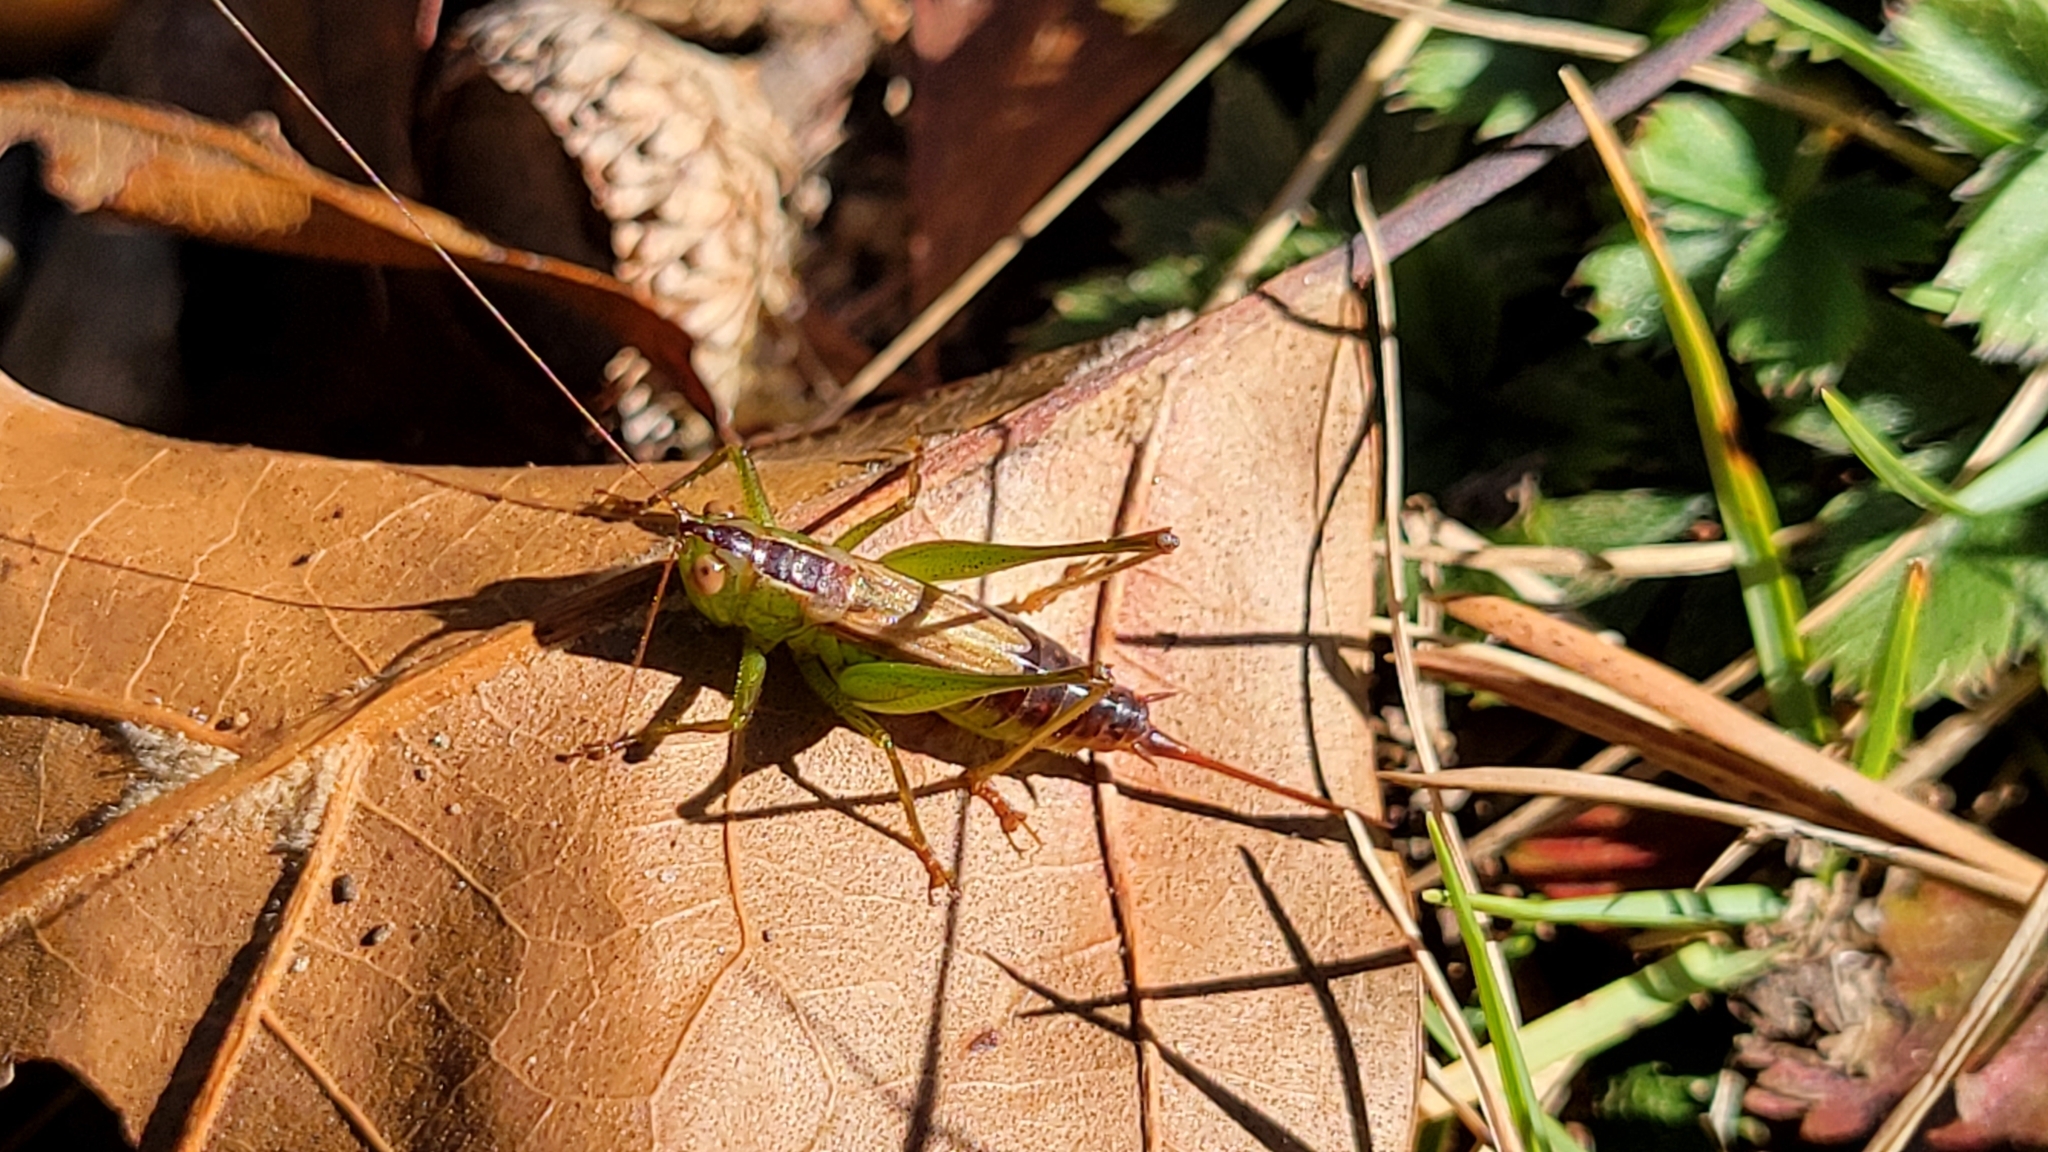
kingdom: Animalia
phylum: Arthropoda
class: Insecta
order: Orthoptera
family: Tettigoniidae
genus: Conocephalus
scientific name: Conocephalus brevipennis
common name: Short-winged meadow katydid
